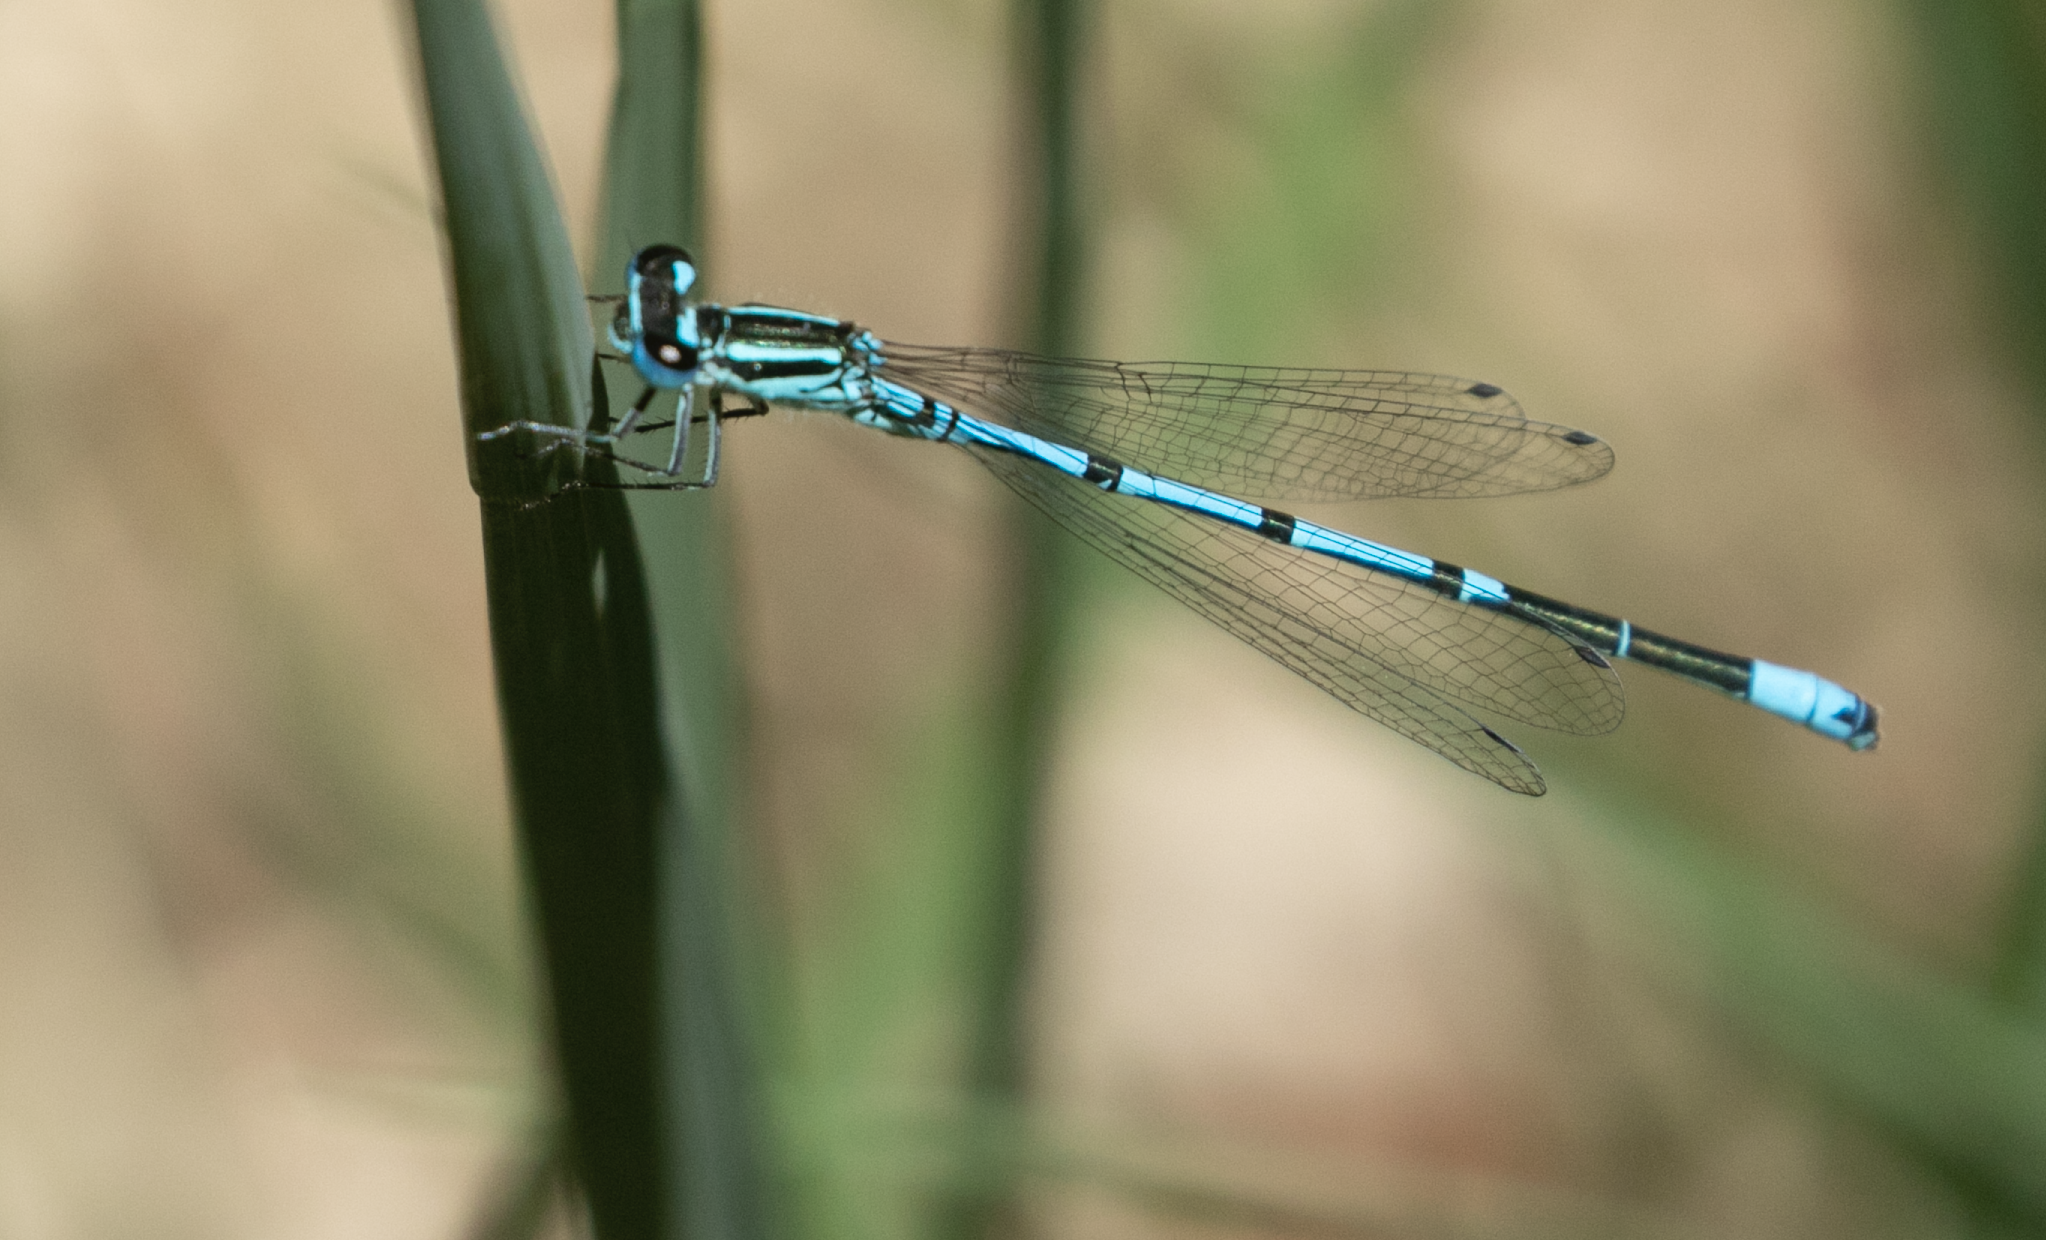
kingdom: Animalia
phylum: Arthropoda
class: Insecta
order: Odonata
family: Coenagrionidae
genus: Coenagrion
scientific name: Coenagrion puella
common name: Azure damselfly
